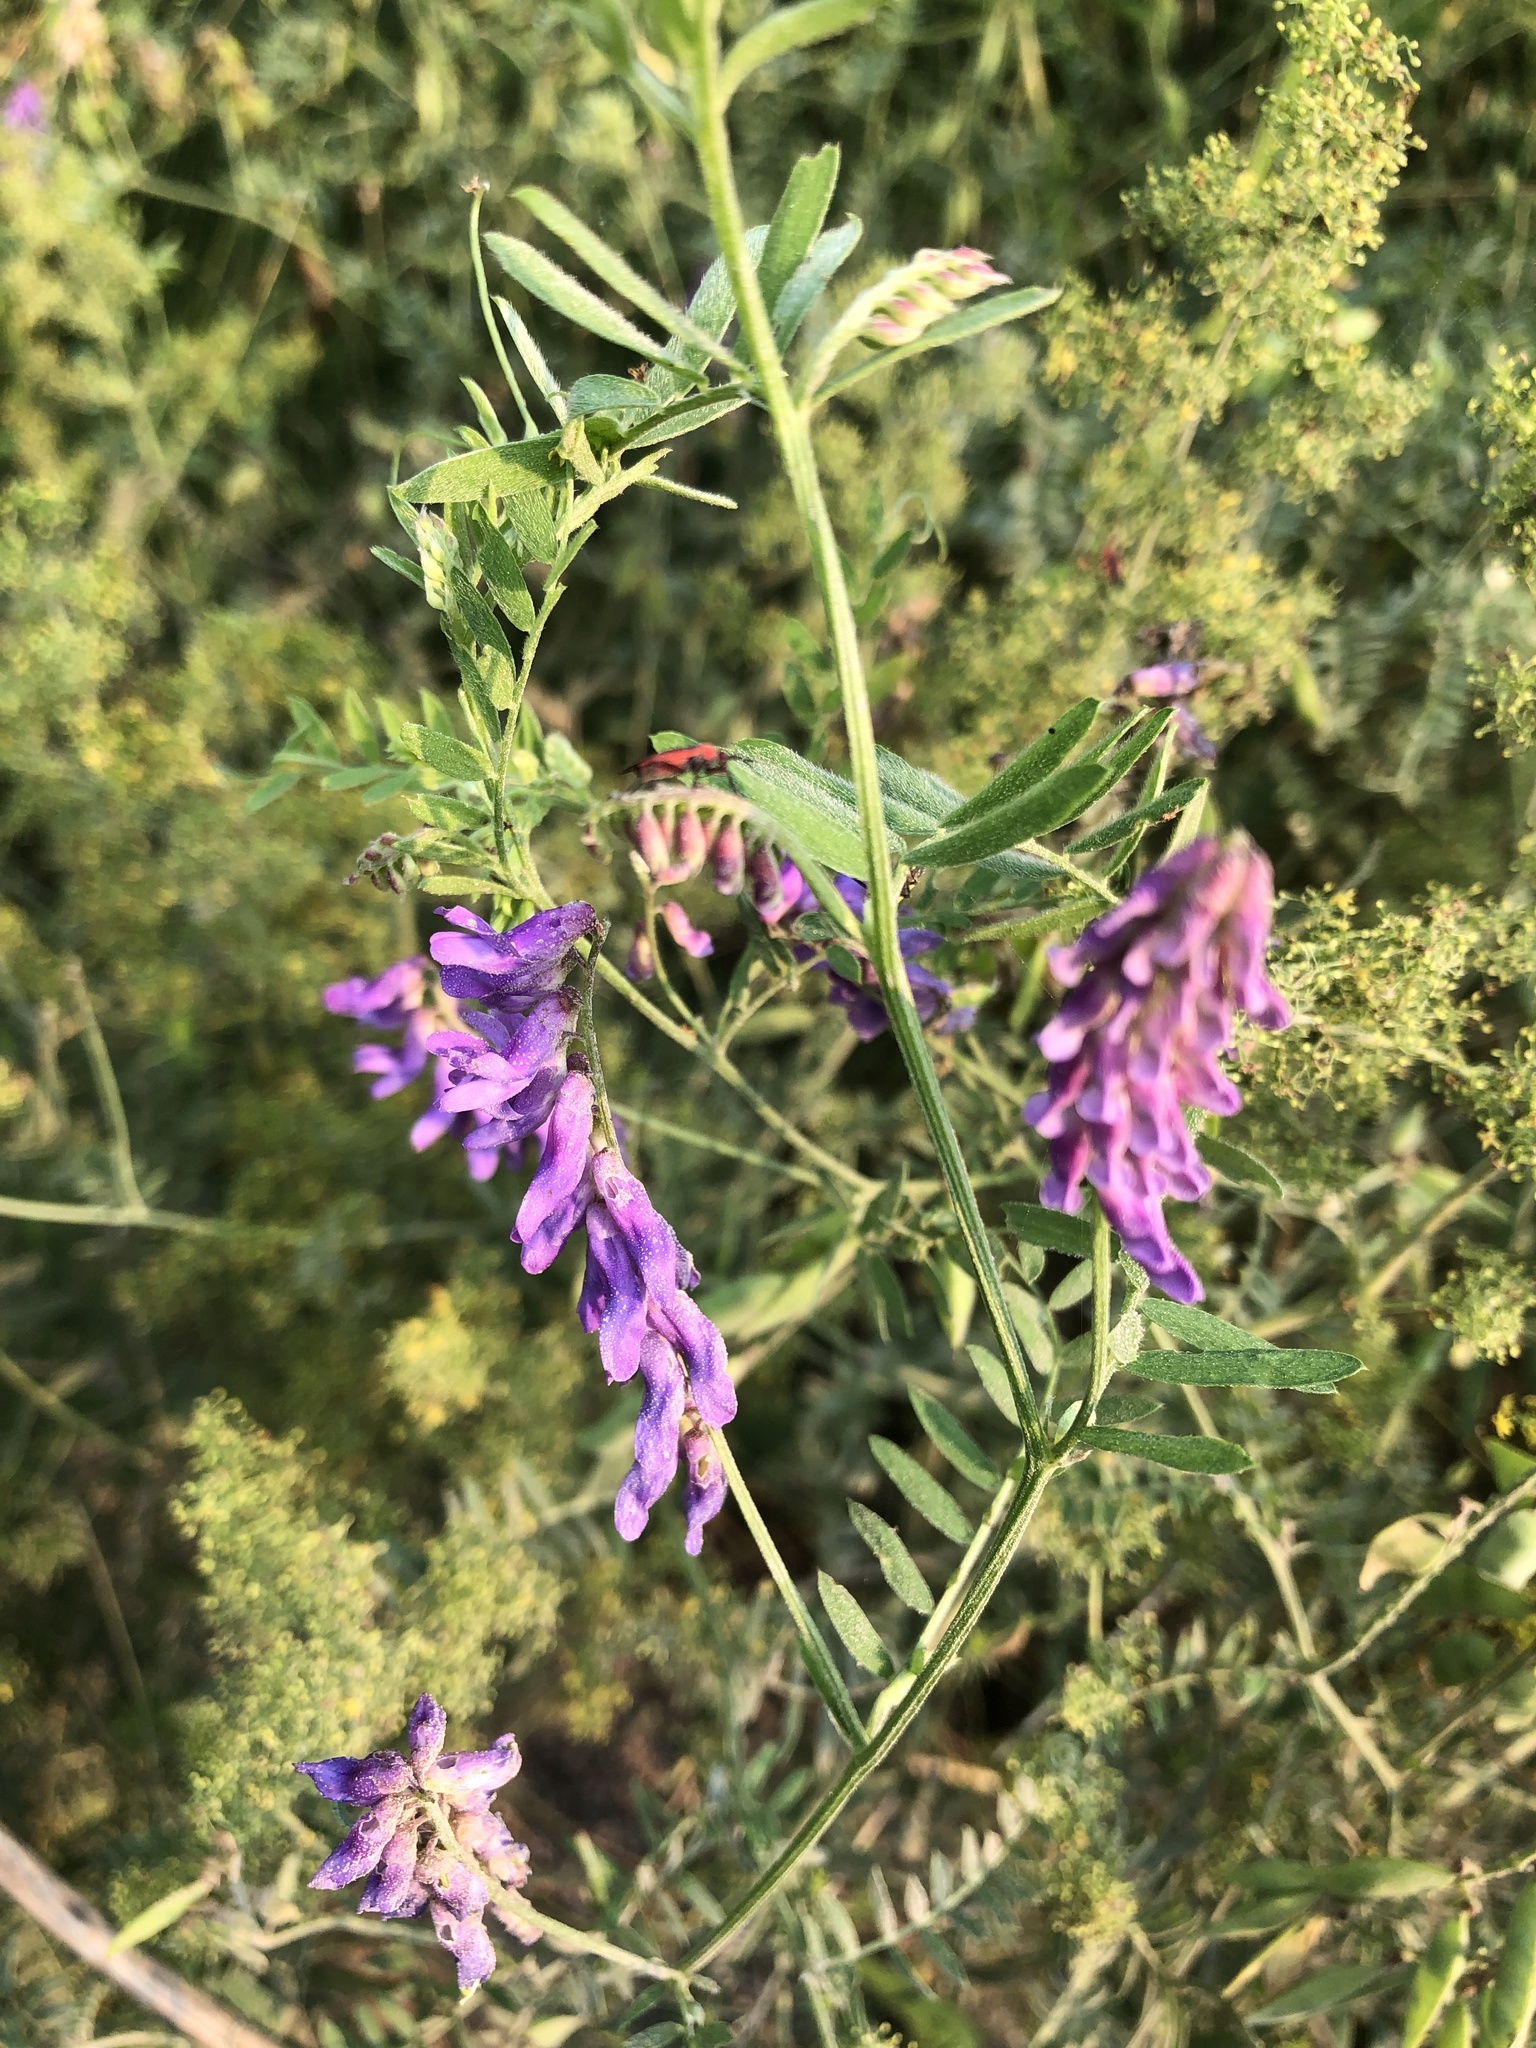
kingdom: Plantae
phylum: Tracheophyta
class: Magnoliopsida
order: Fabales
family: Fabaceae
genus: Vicia
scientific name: Vicia cracca
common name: Bird vetch
